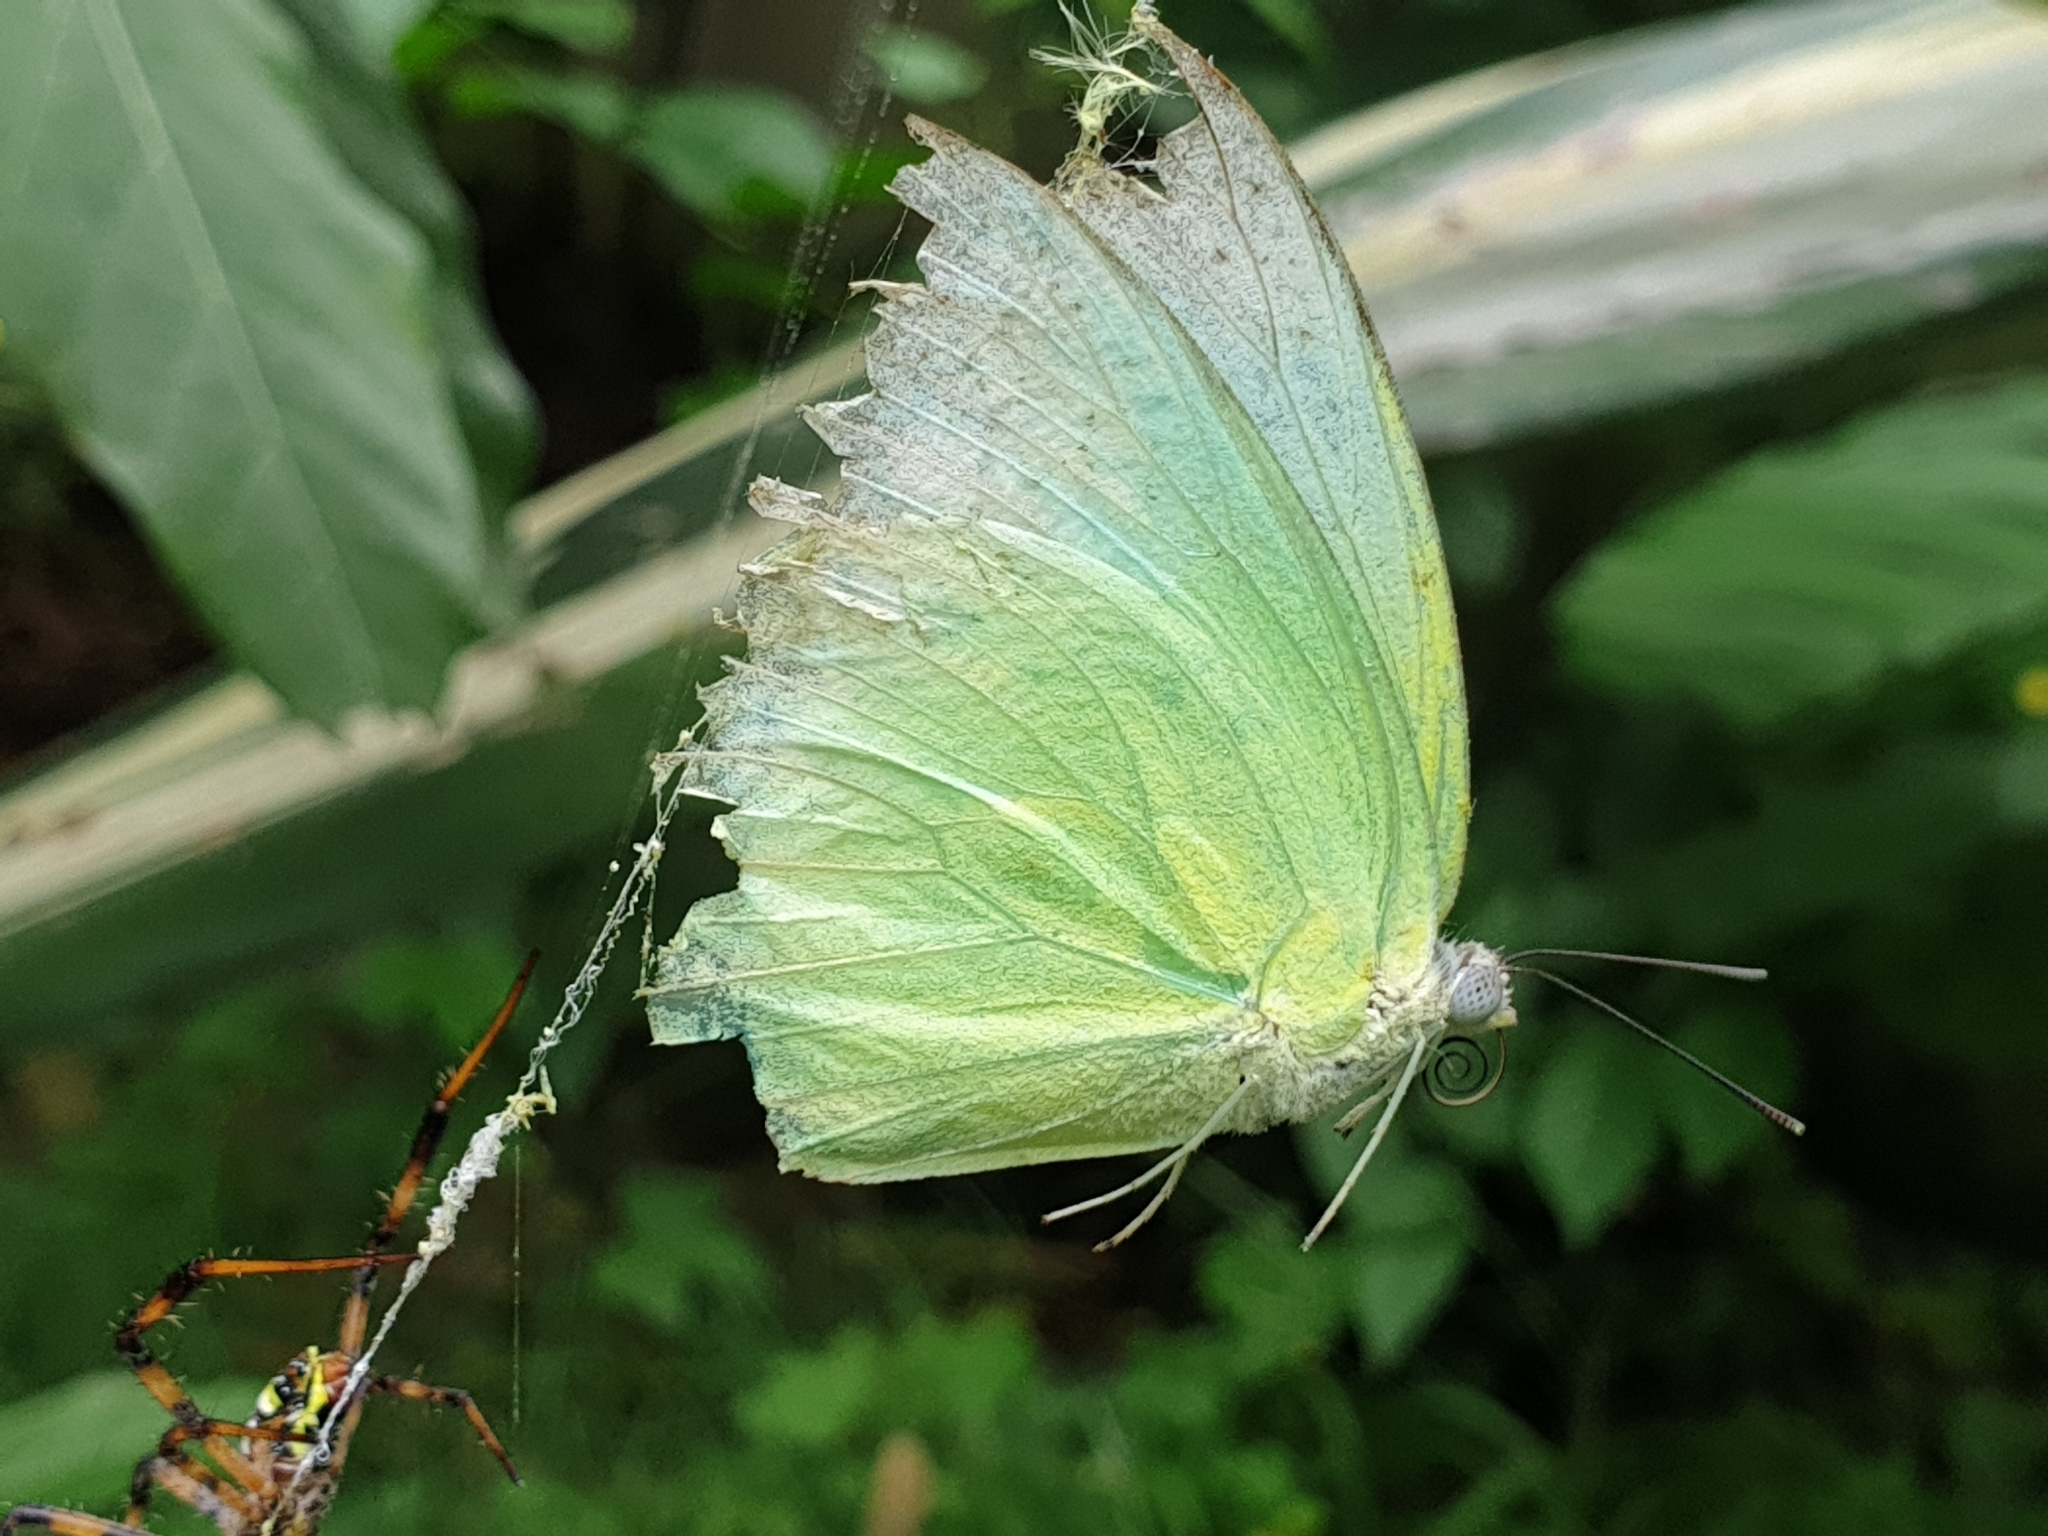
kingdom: Animalia
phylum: Arthropoda
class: Insecta
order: Lepidoptera
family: Pieridae
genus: Catopsilia
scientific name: Catopsilia pomona
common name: Common emigrant
